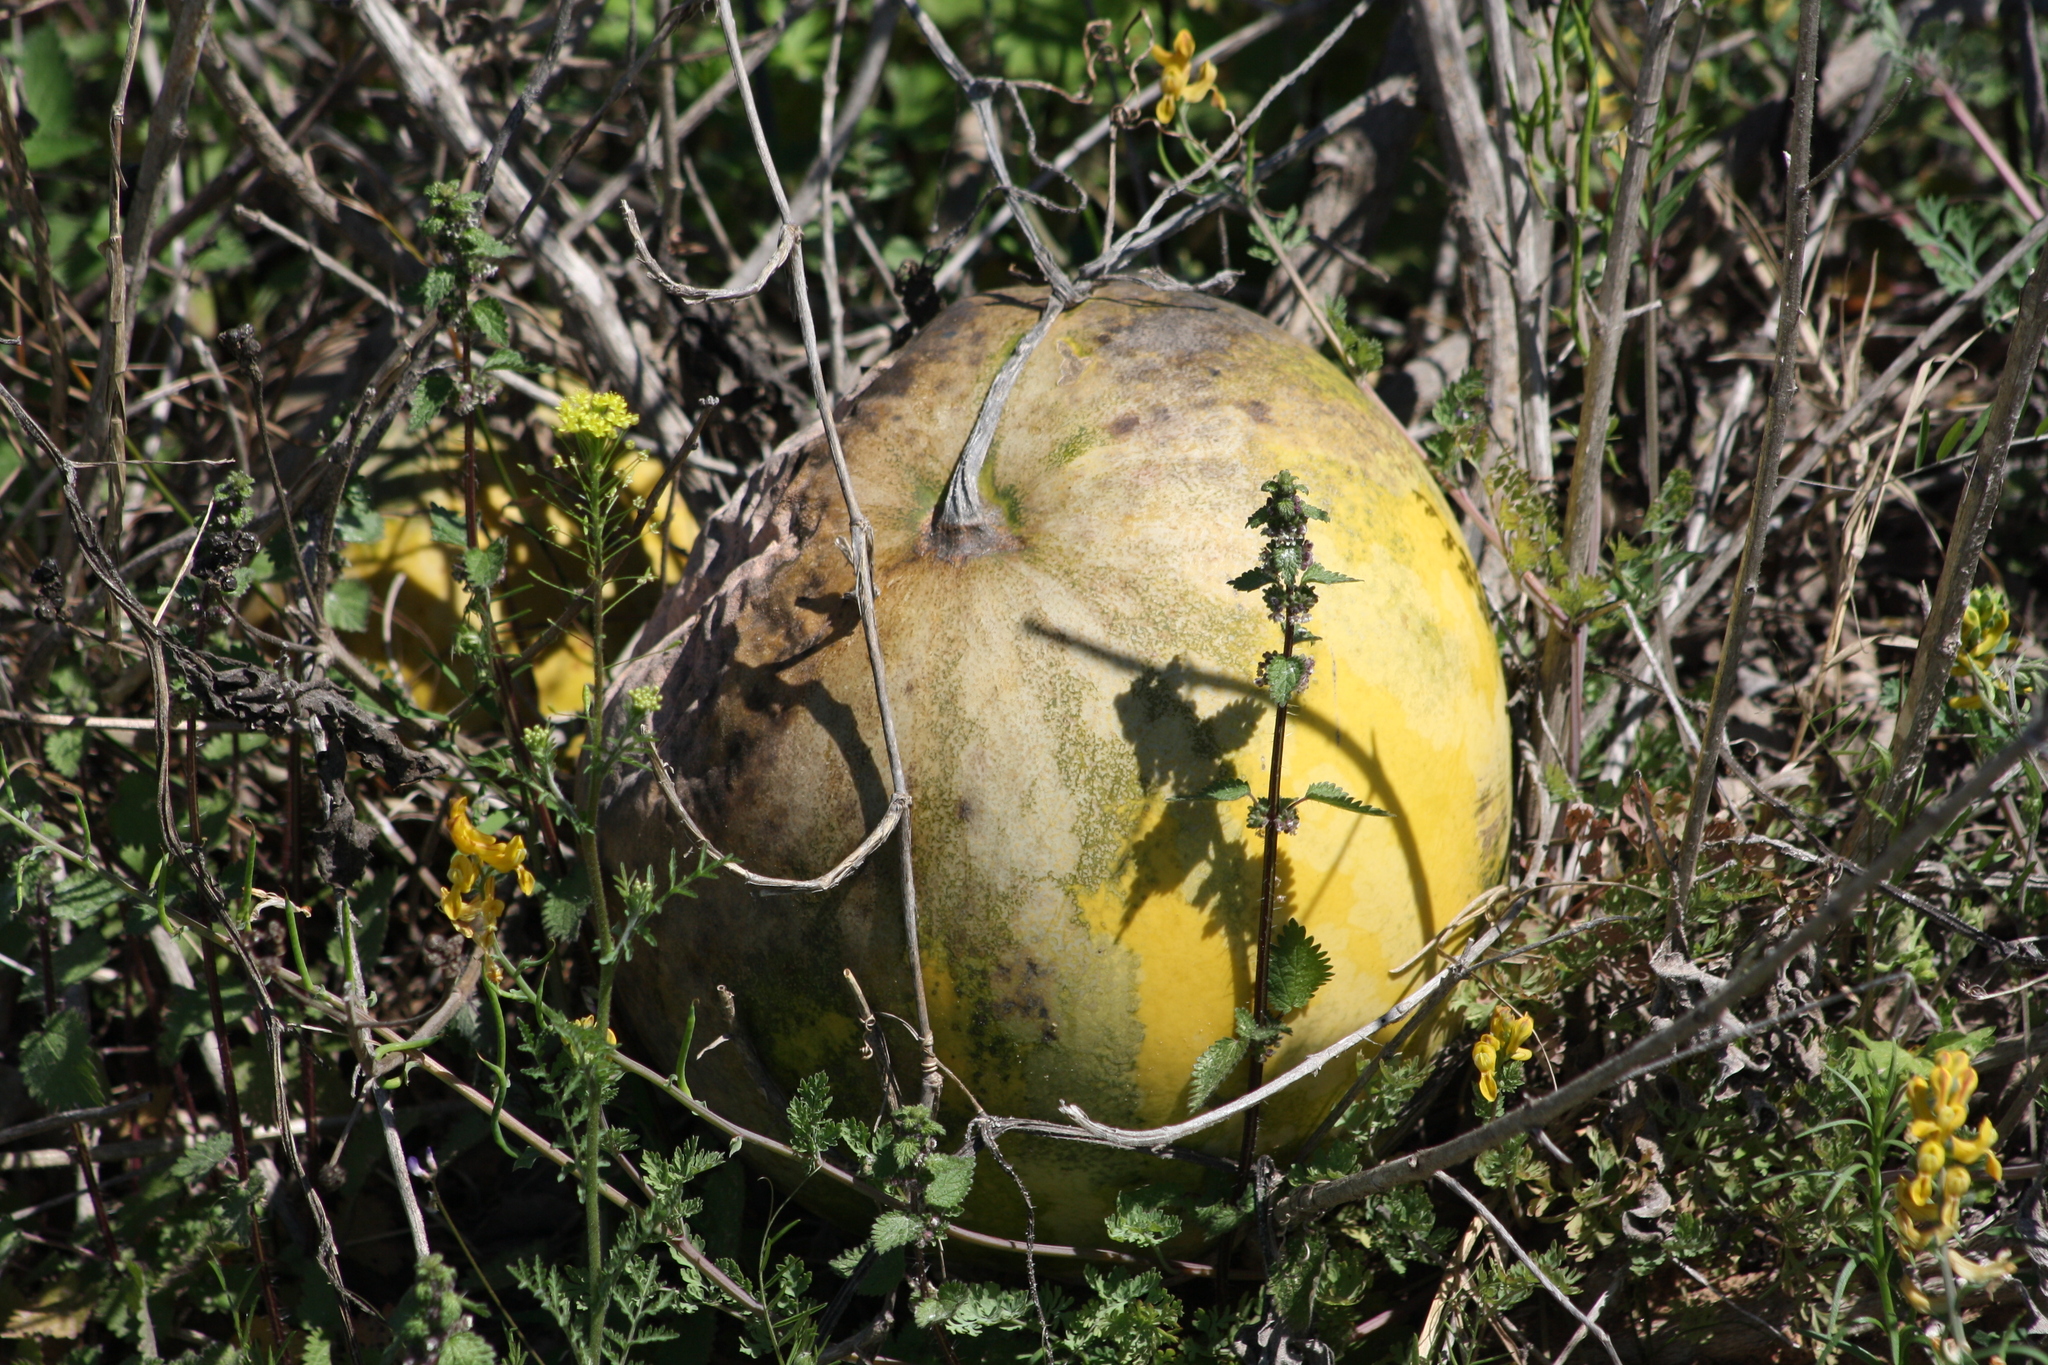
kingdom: Plantae
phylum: Tracheophyta
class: Magnoliopsida
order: Cucurbitales
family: Cucurbitaceae
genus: Citrullus
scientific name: Citrullus amarus
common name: Fodder-melon
